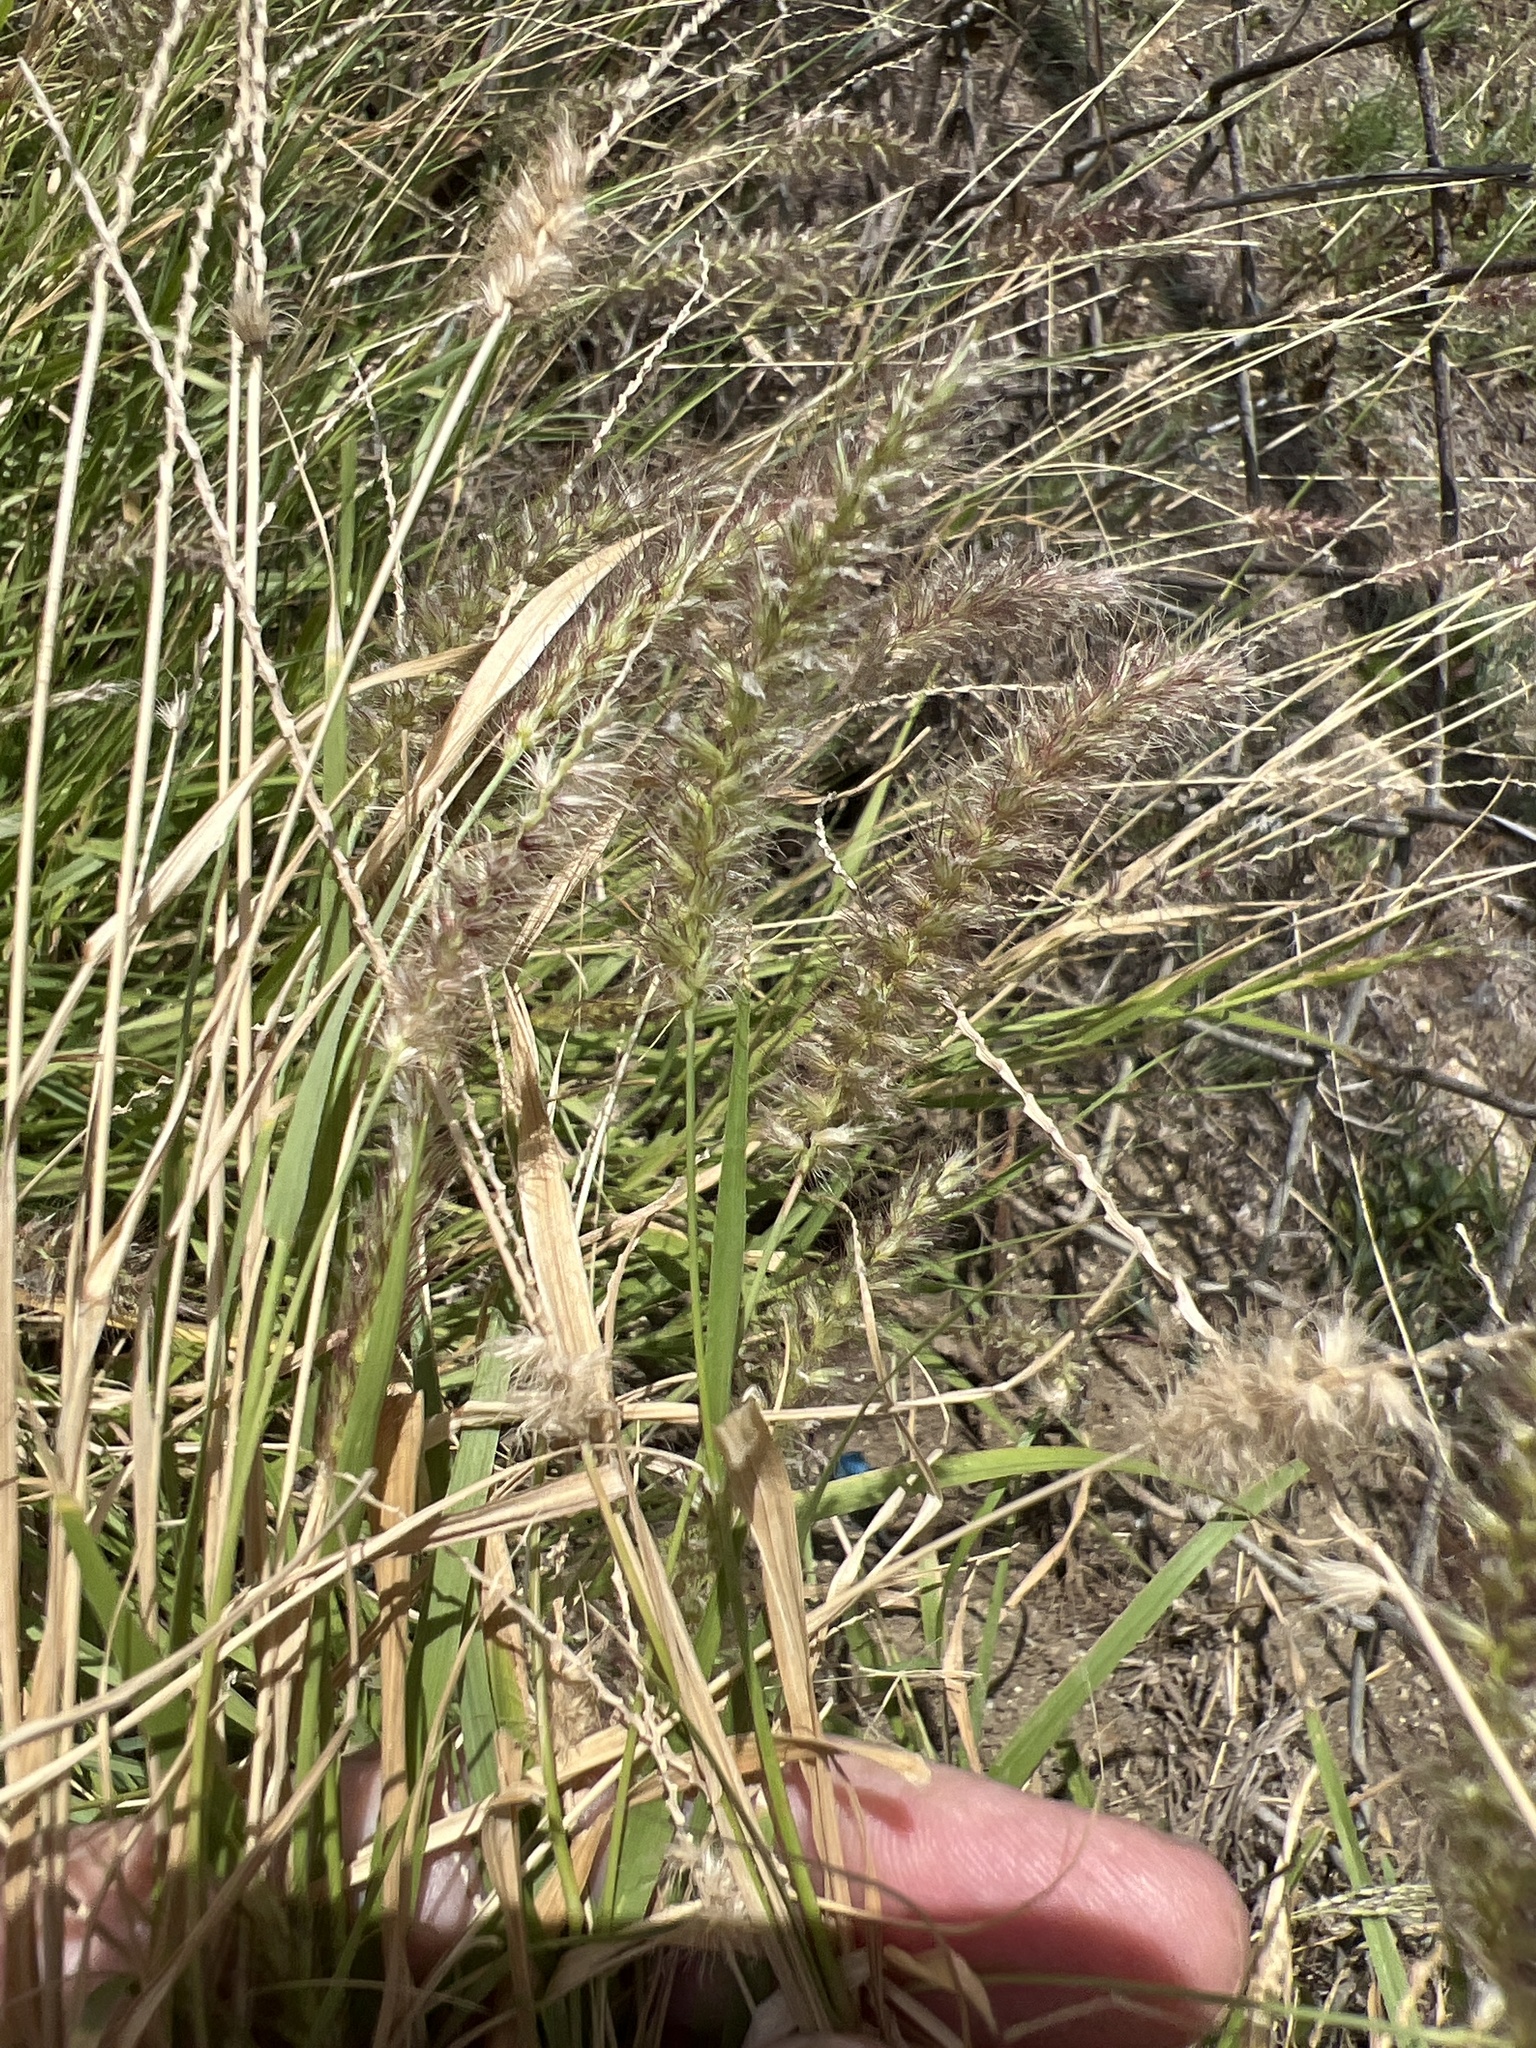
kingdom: Plantae
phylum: Tracheophyta
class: Liliopsida
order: Poales
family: Poaceae
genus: Cenchrus
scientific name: Cenchrus ciliaris
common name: Buffelgrass
